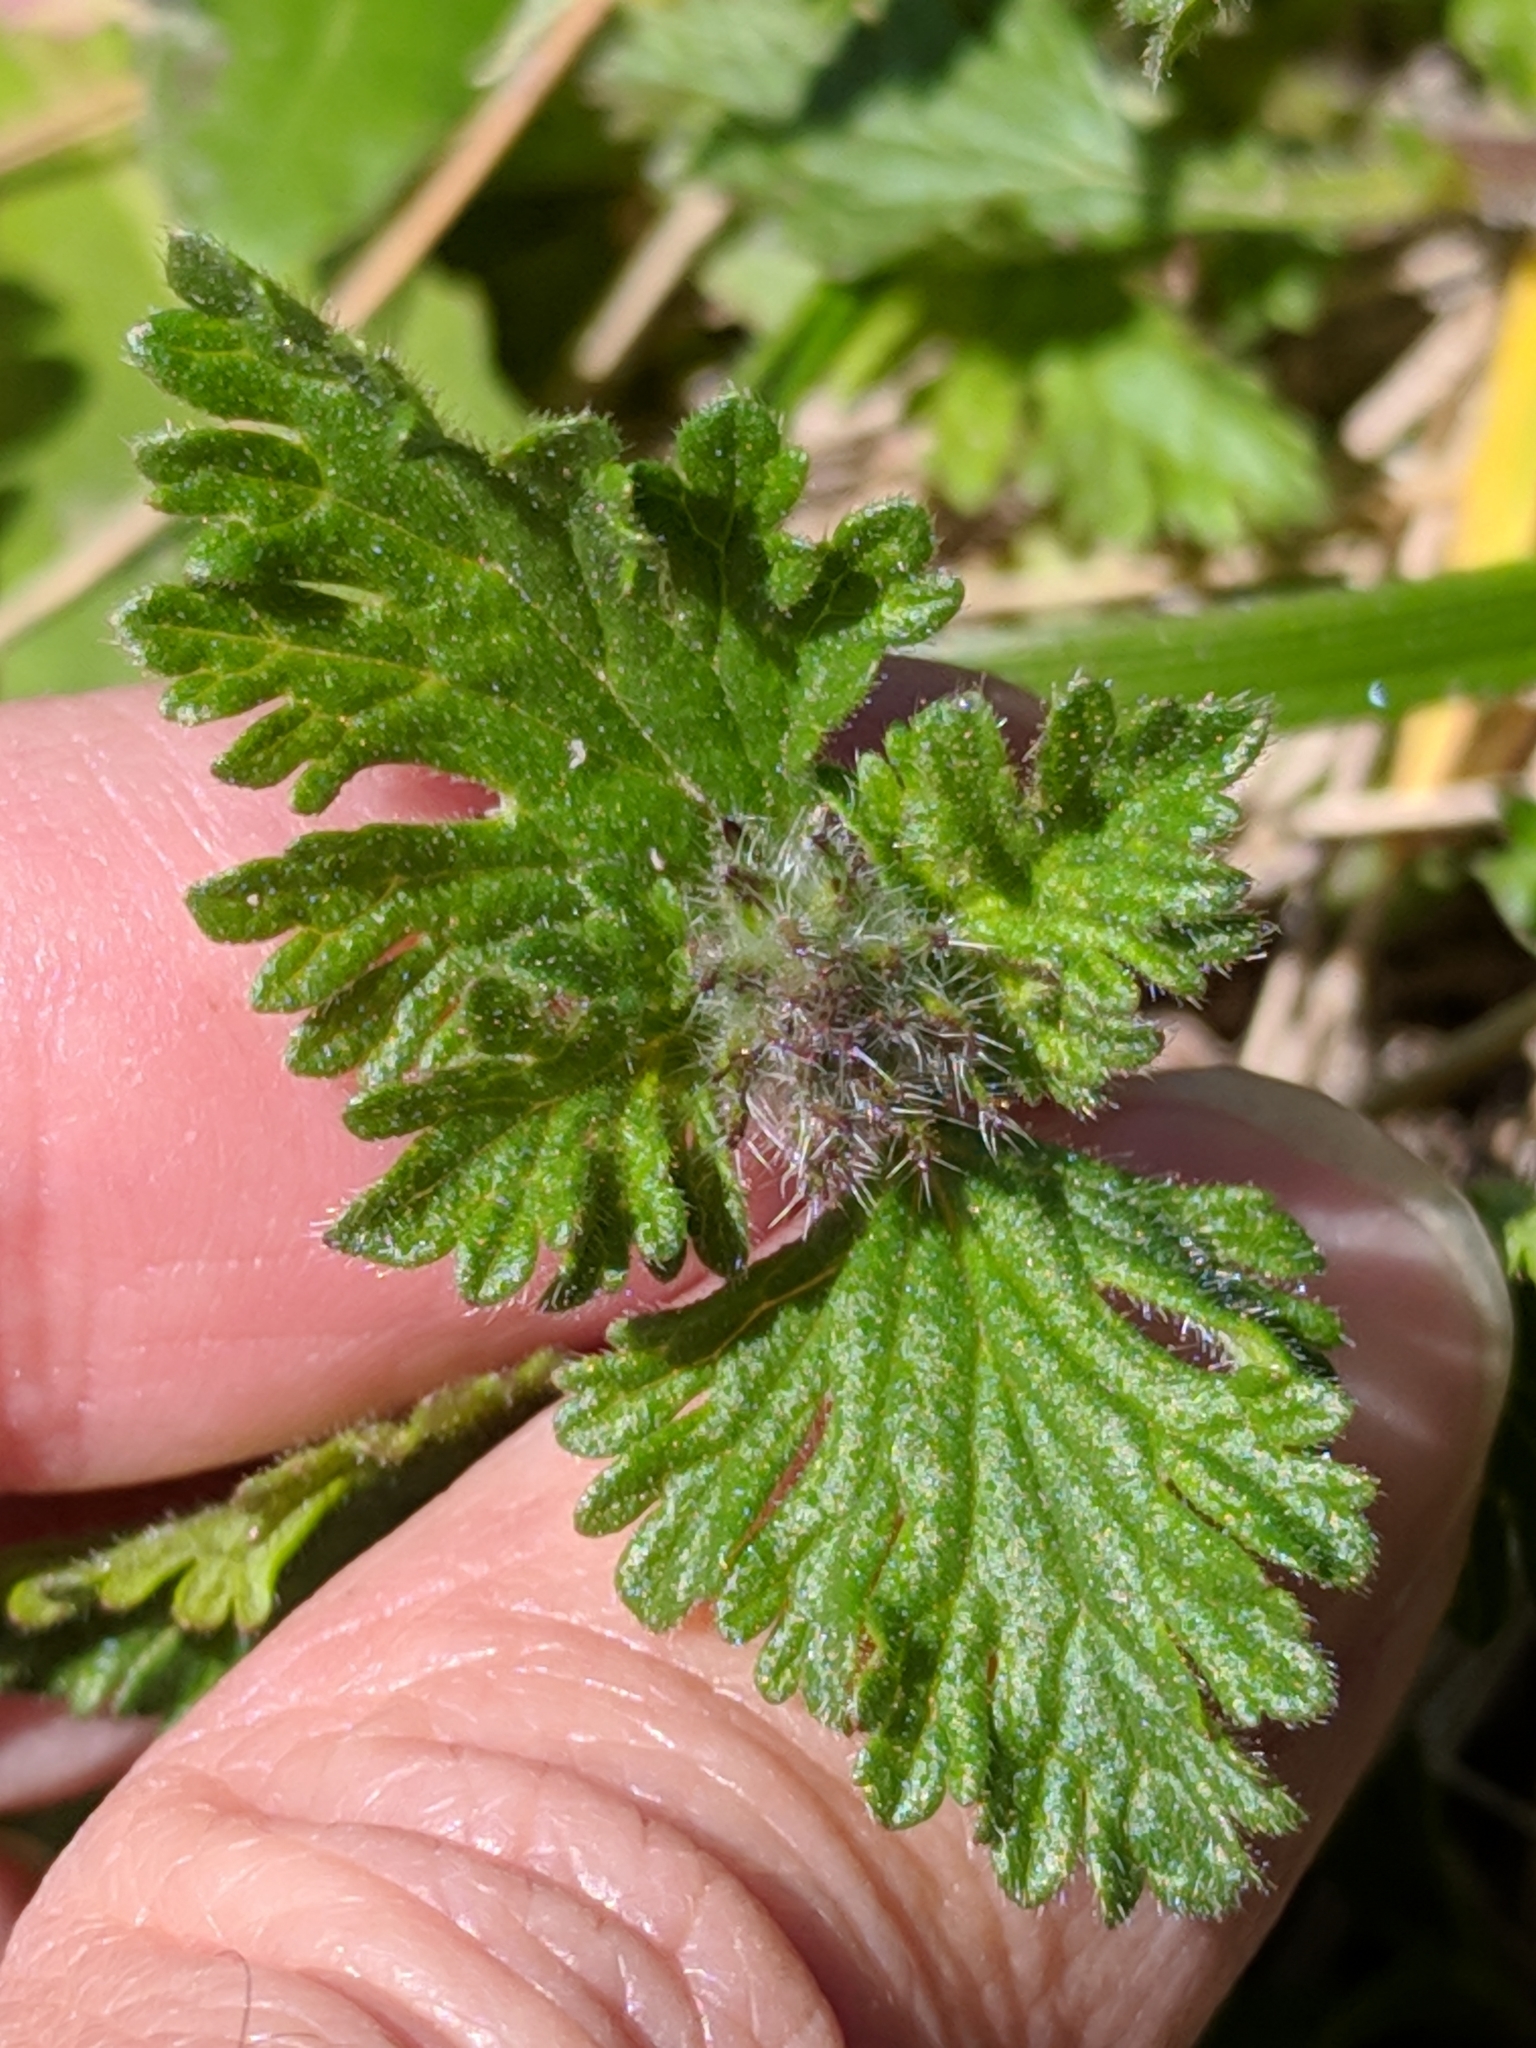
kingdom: Plantae
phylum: Tracheophyta
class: Magnoliopsida
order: Lamiales
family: Verbenaceae
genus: Verbena
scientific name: Verbena pumila
